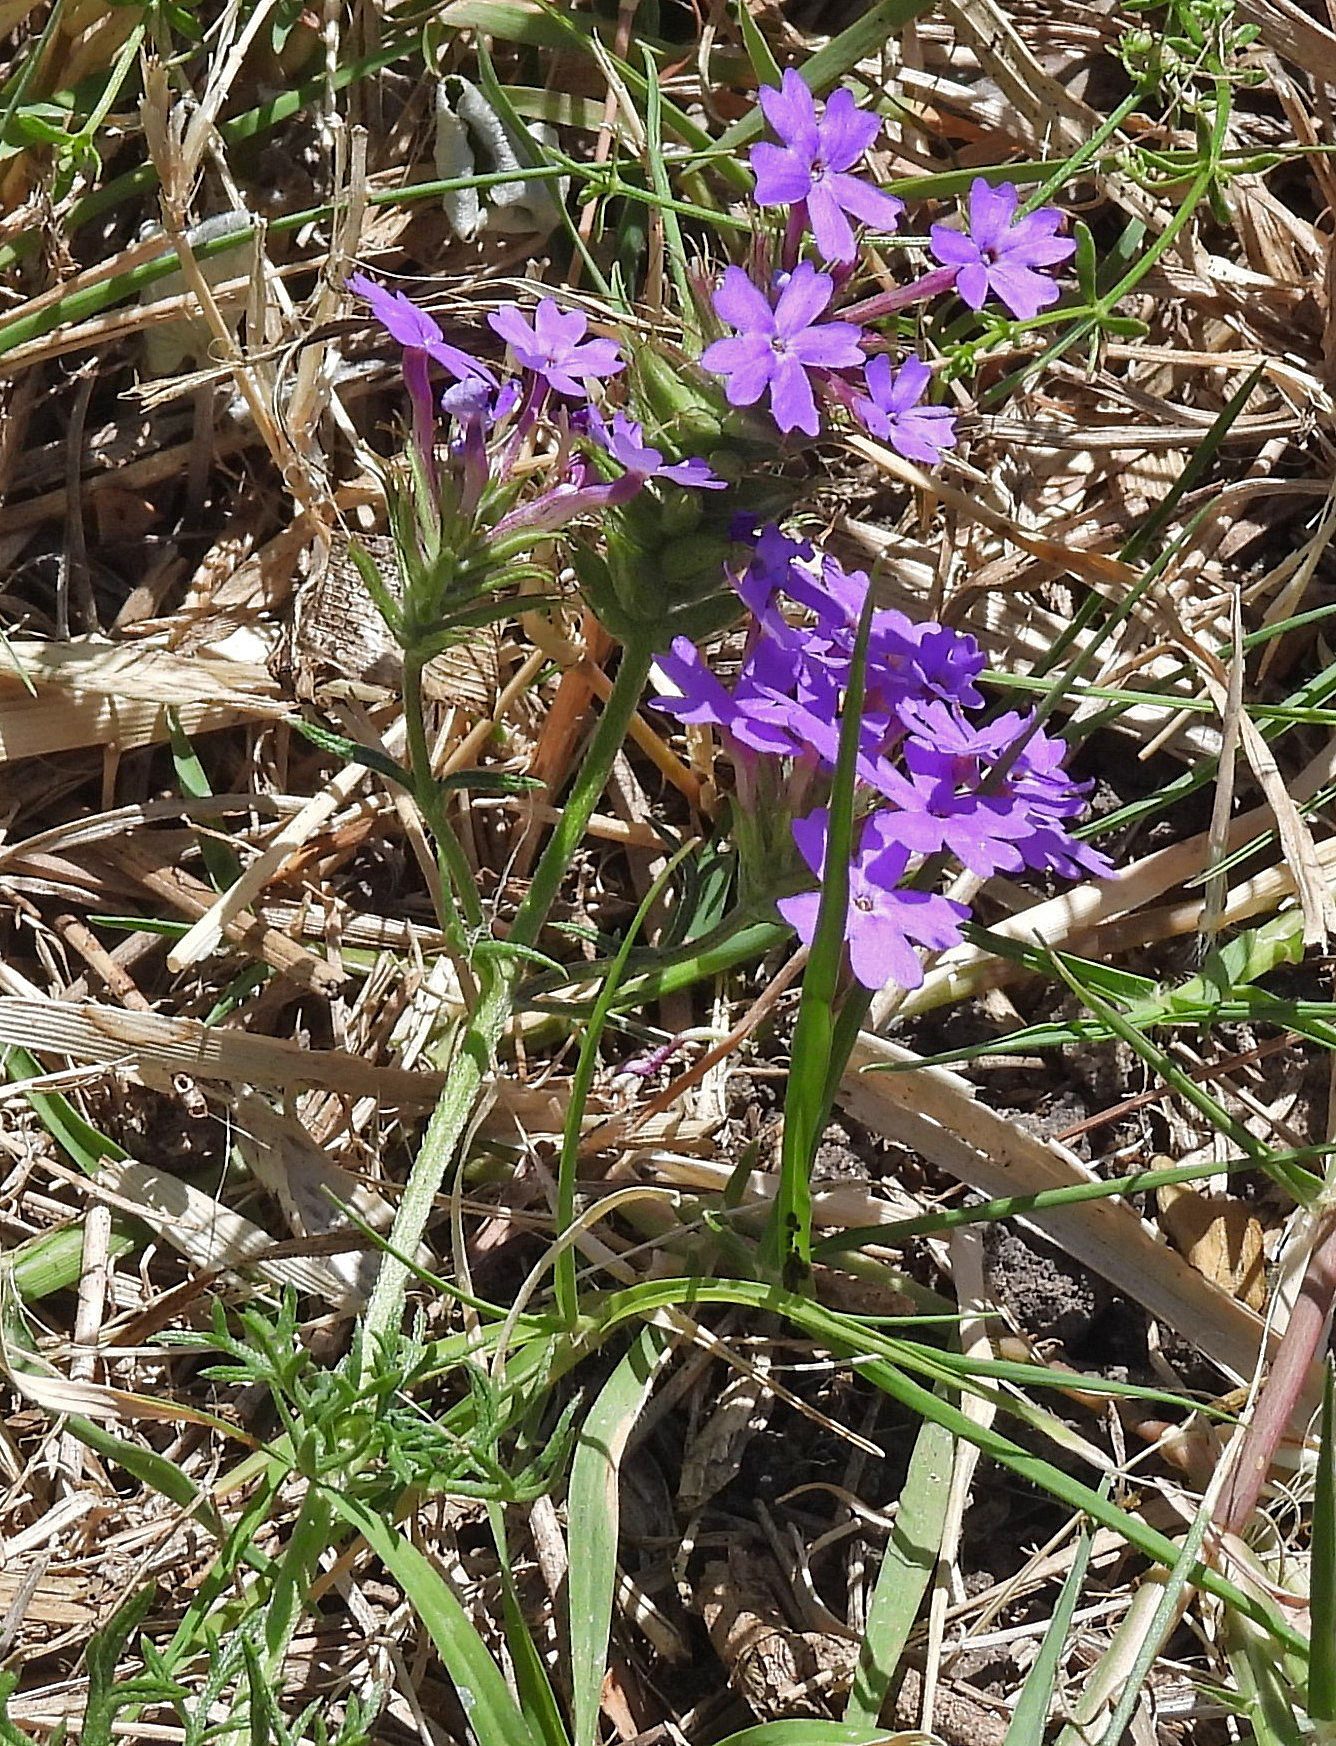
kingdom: Plantae
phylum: Tracheophyta
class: Magnoliopsida
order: Lamiales
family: Verbenaceae
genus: Verbena
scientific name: Verbena
